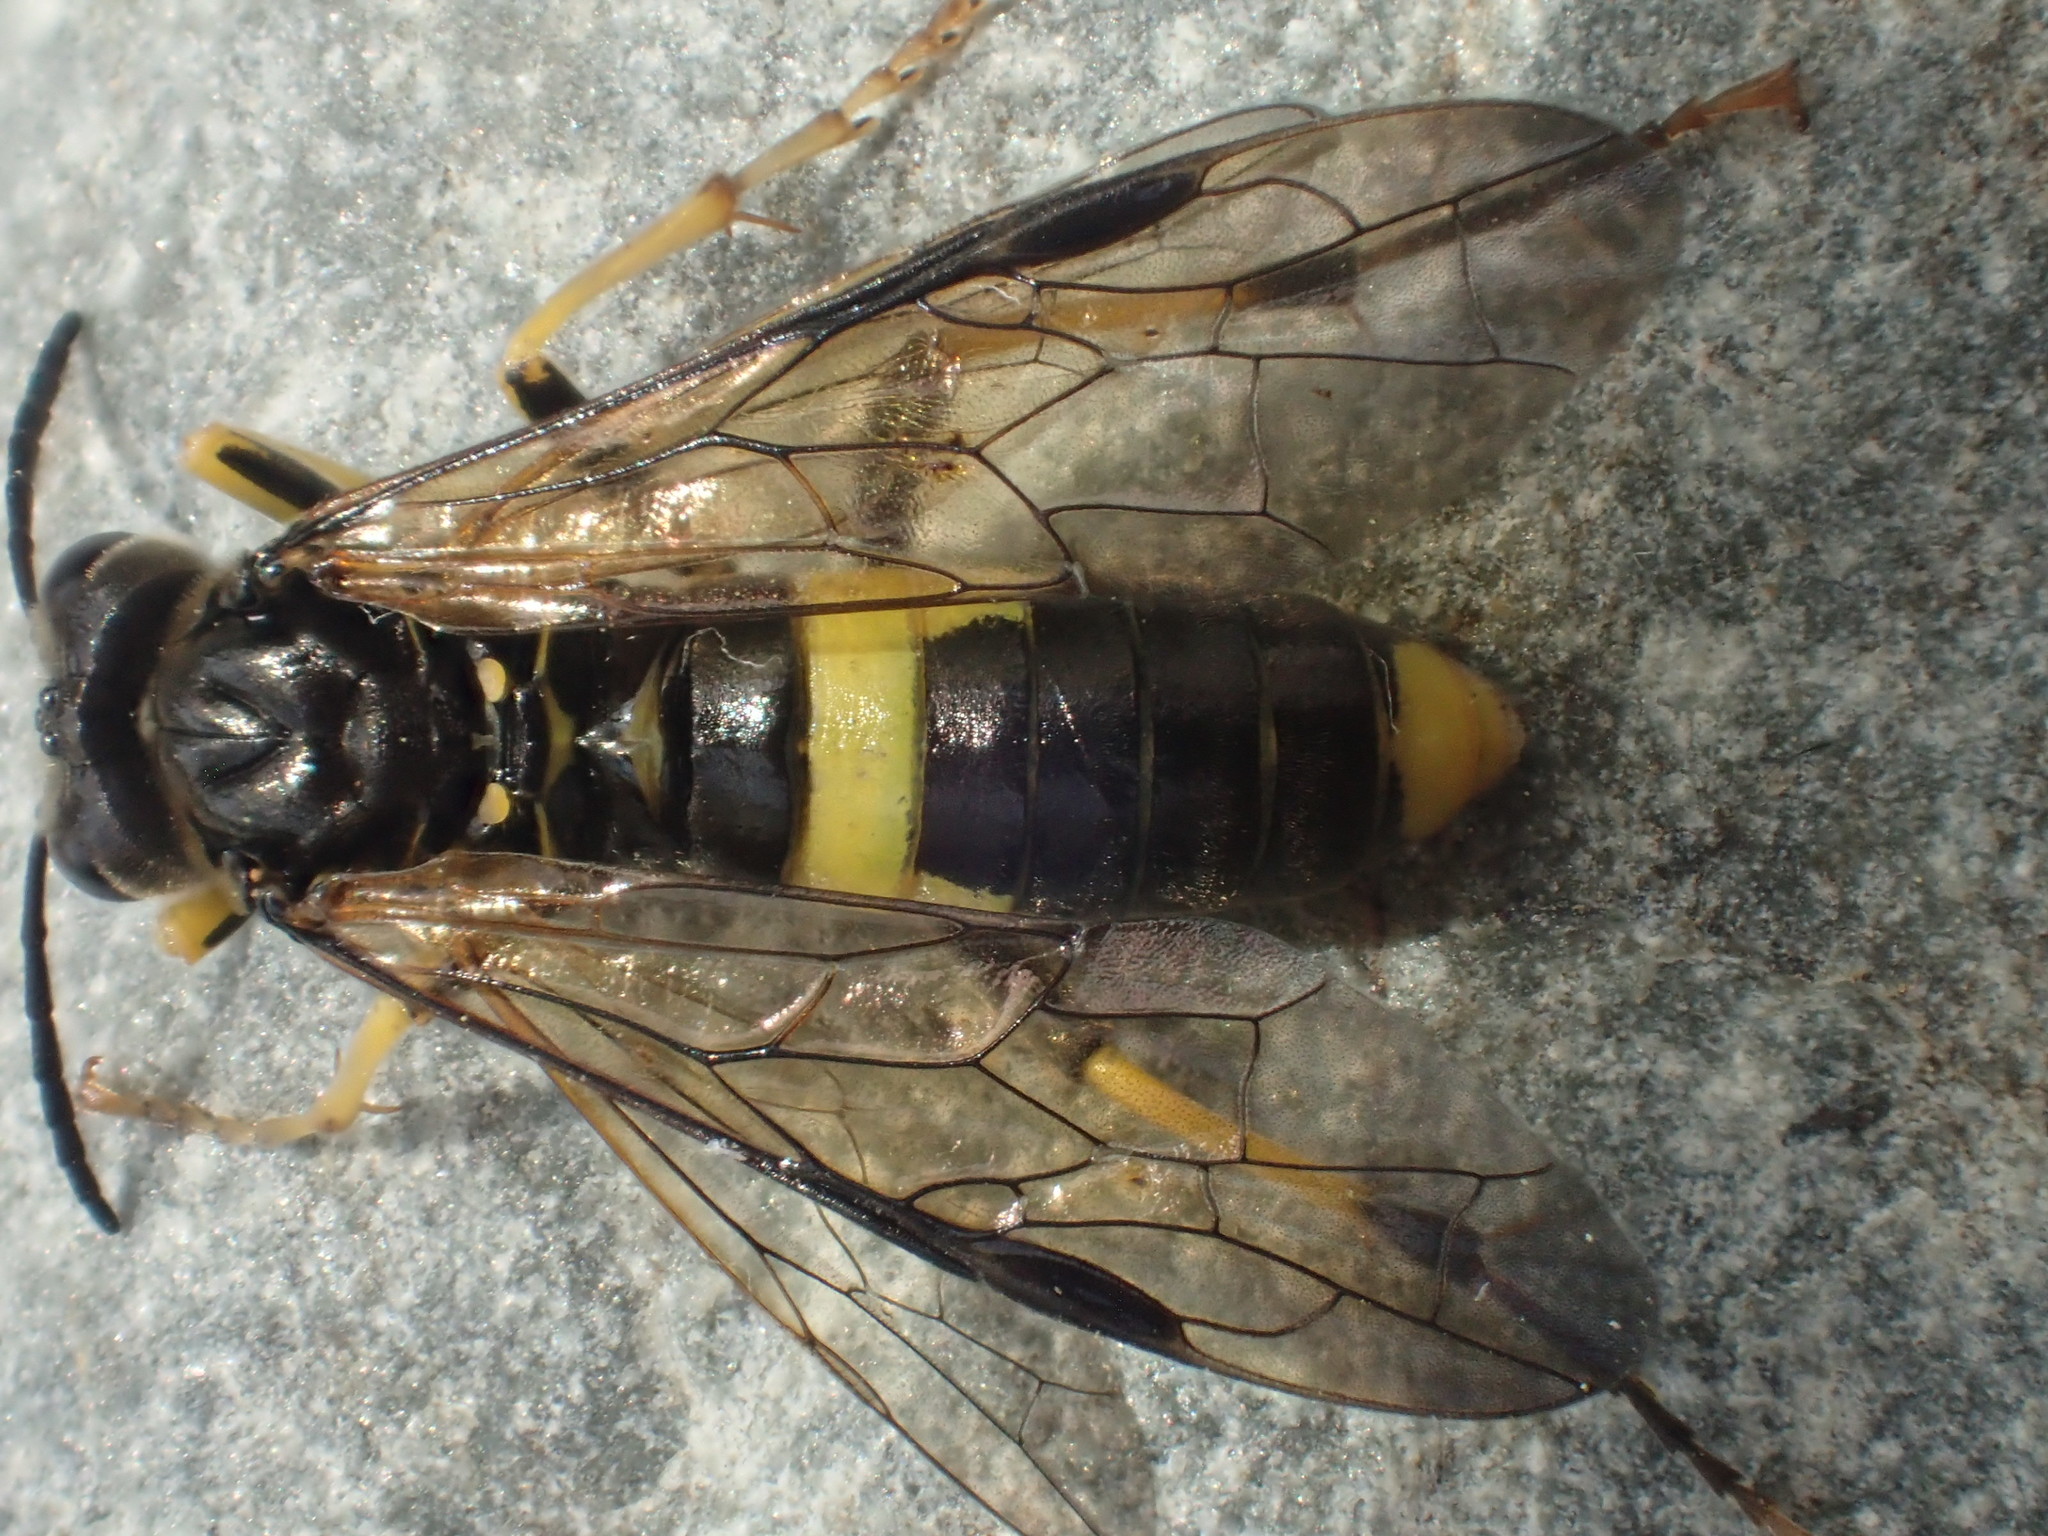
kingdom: Animalia
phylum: Arthropoda
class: Insecta
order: Hymenoptera
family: Tenthredinidae
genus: Tenthredo
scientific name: Tenthredo temula
